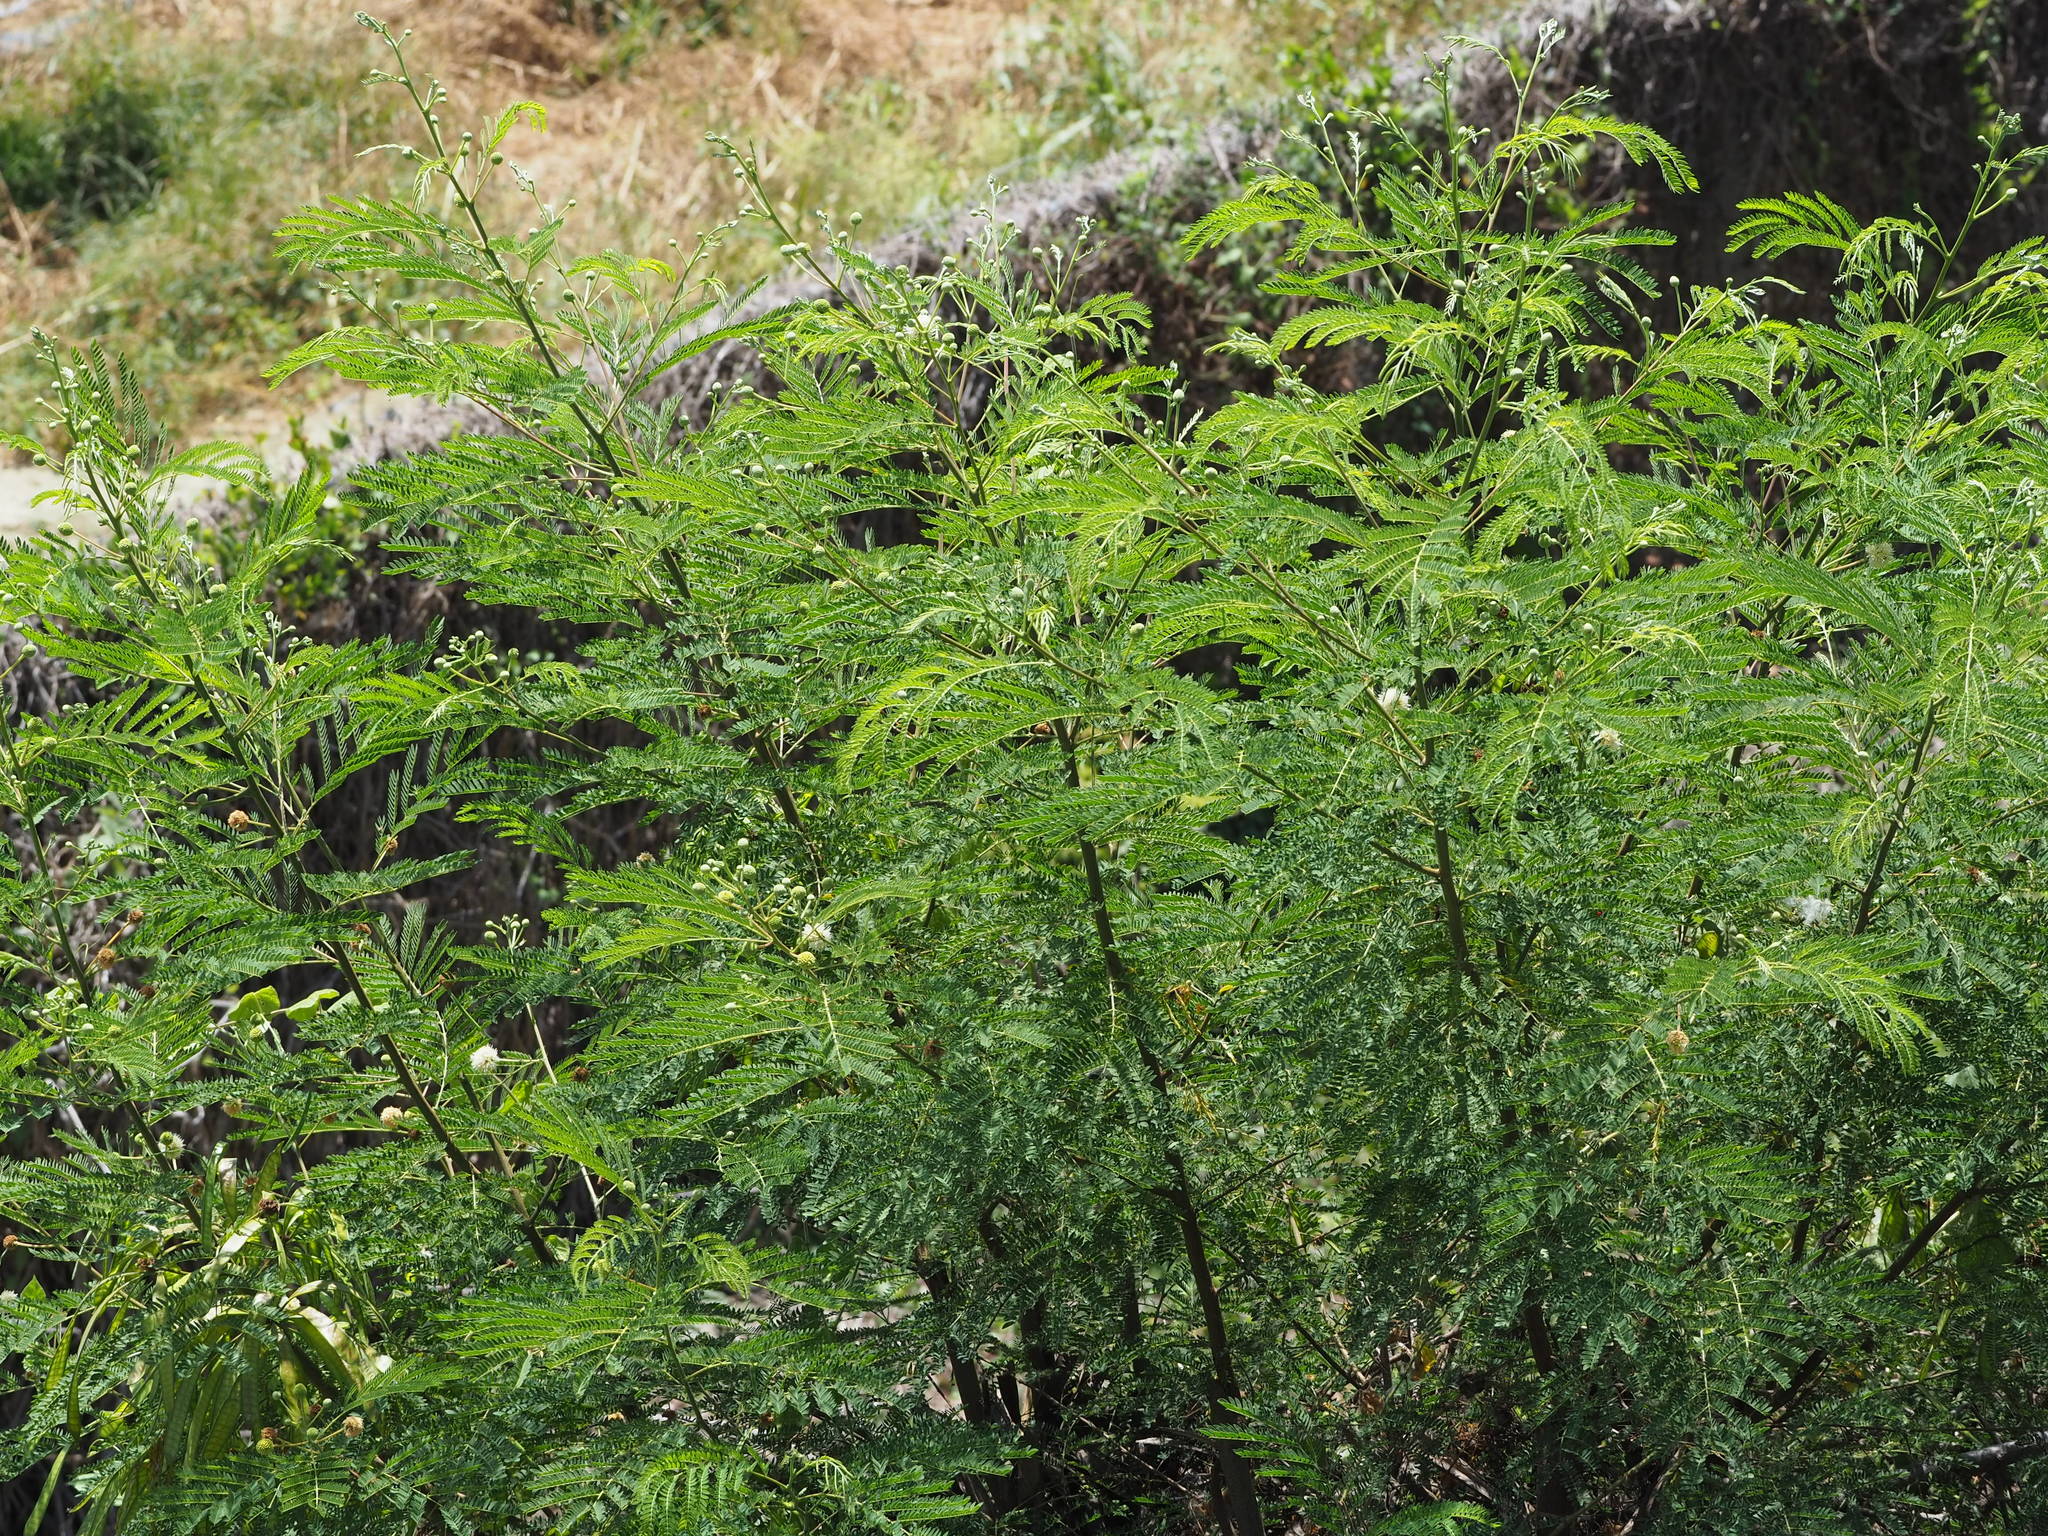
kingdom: Plantae
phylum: Tracheophyta
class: Magnoliopsida
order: Fabales
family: Fabaceae
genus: Leucaena
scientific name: Leucaena leucocephala
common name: White leadtree
